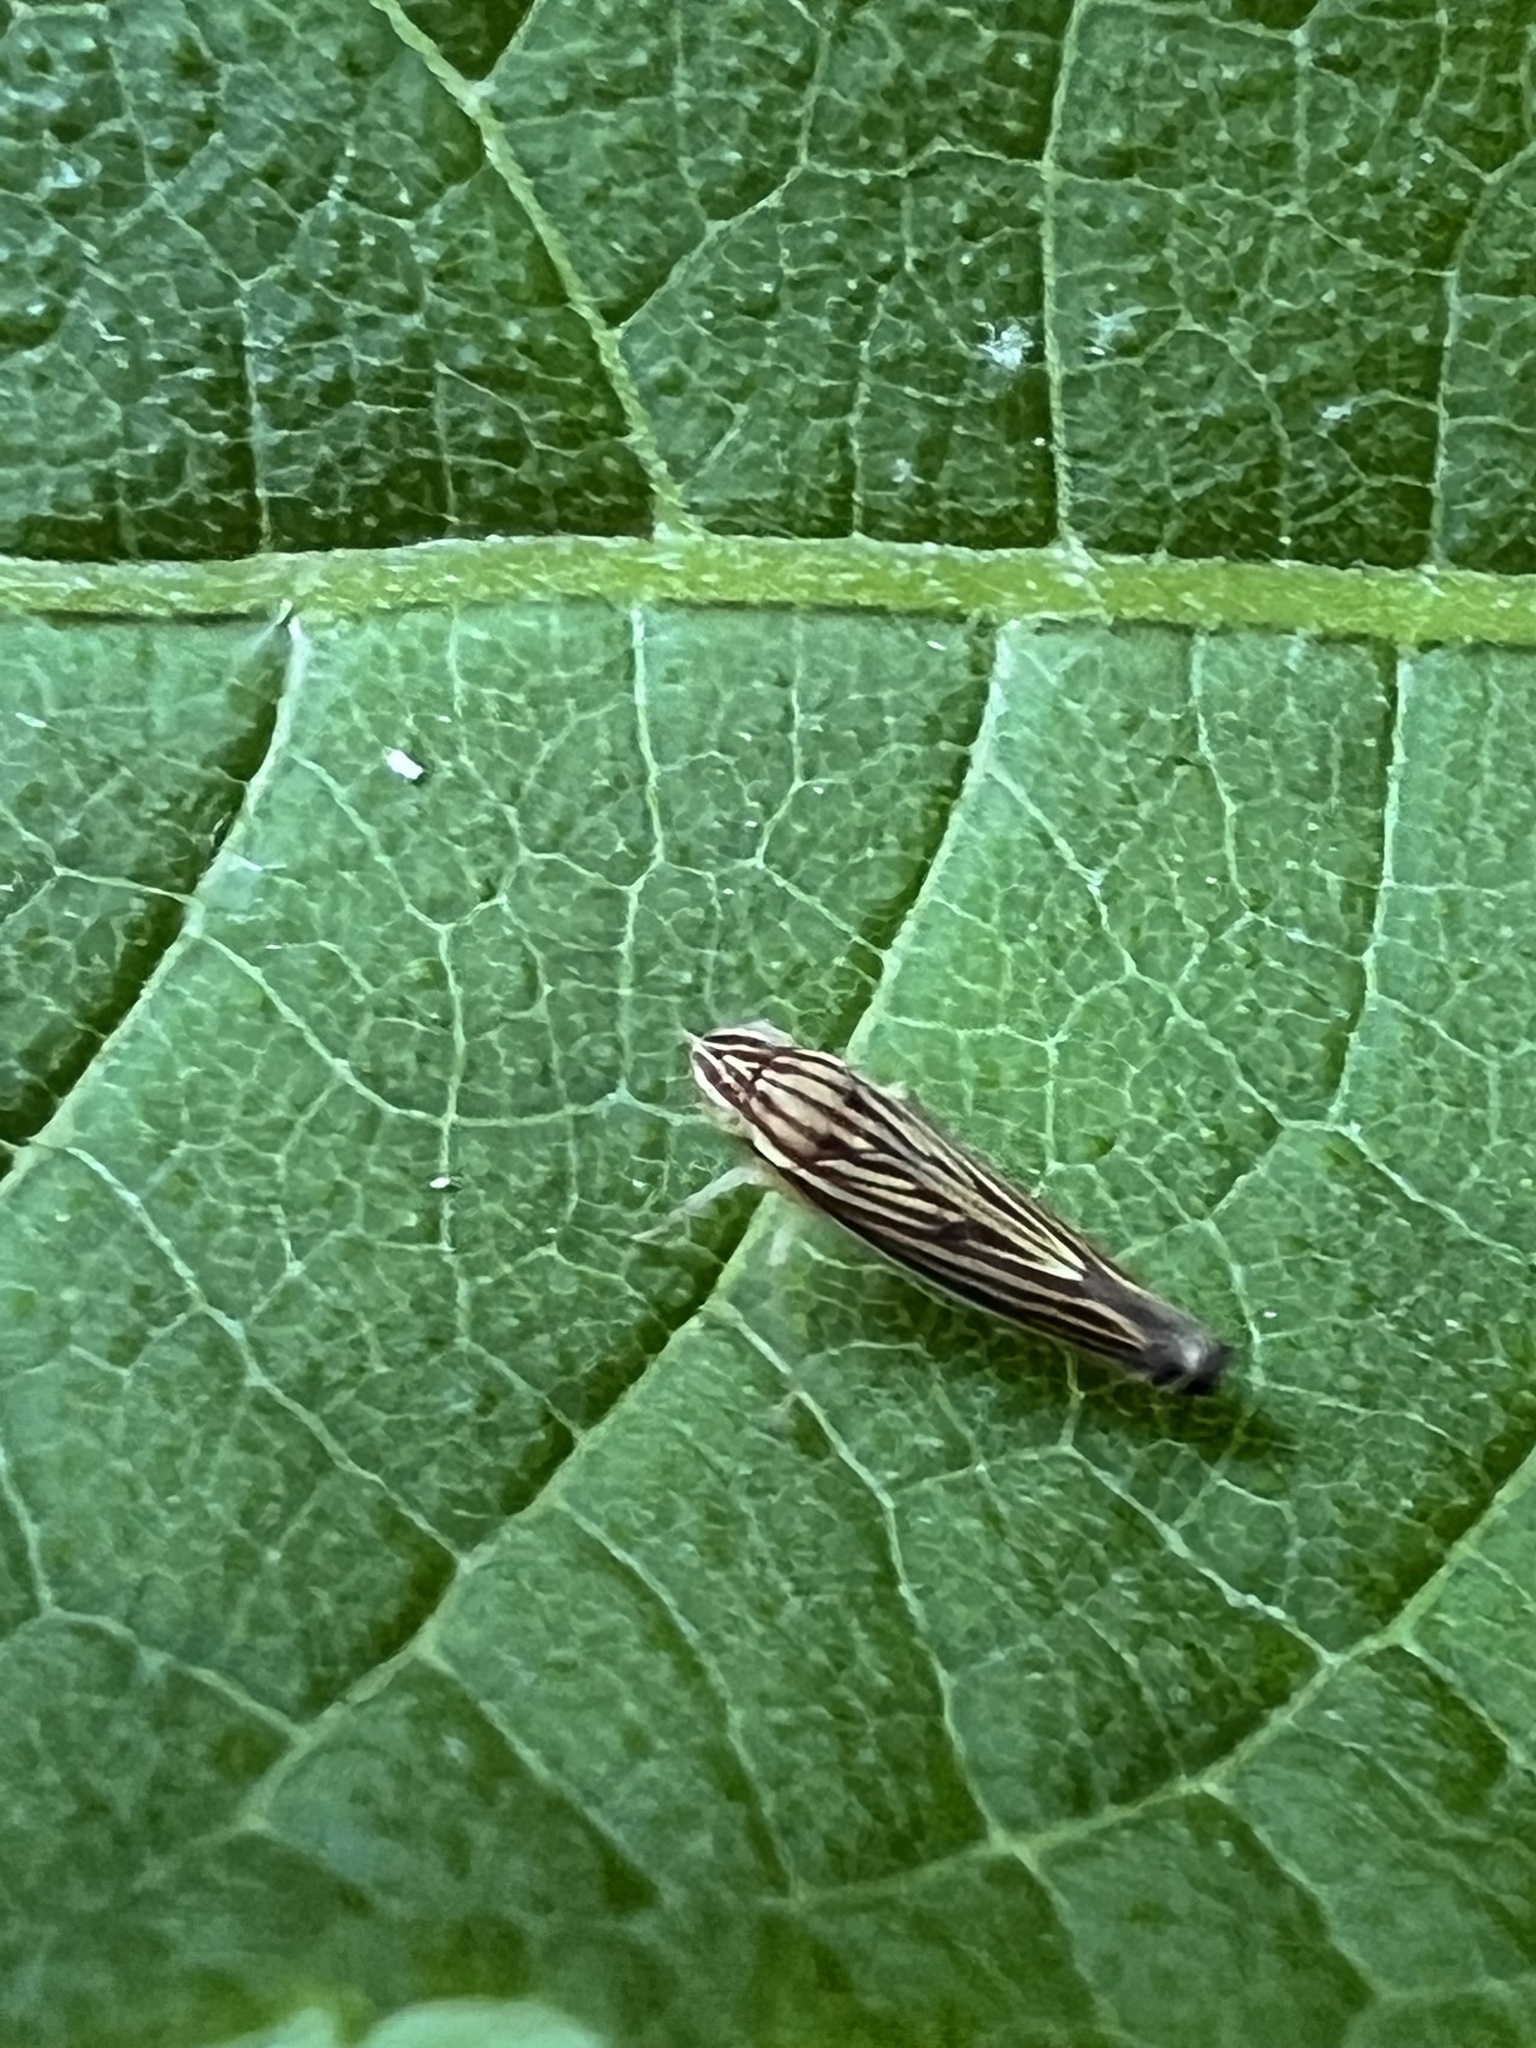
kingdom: Animalia
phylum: Arthropoda
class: Insecta
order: Hemiptera
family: Cicadellidae
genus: Sibovia
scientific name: Sibovia occatoria
